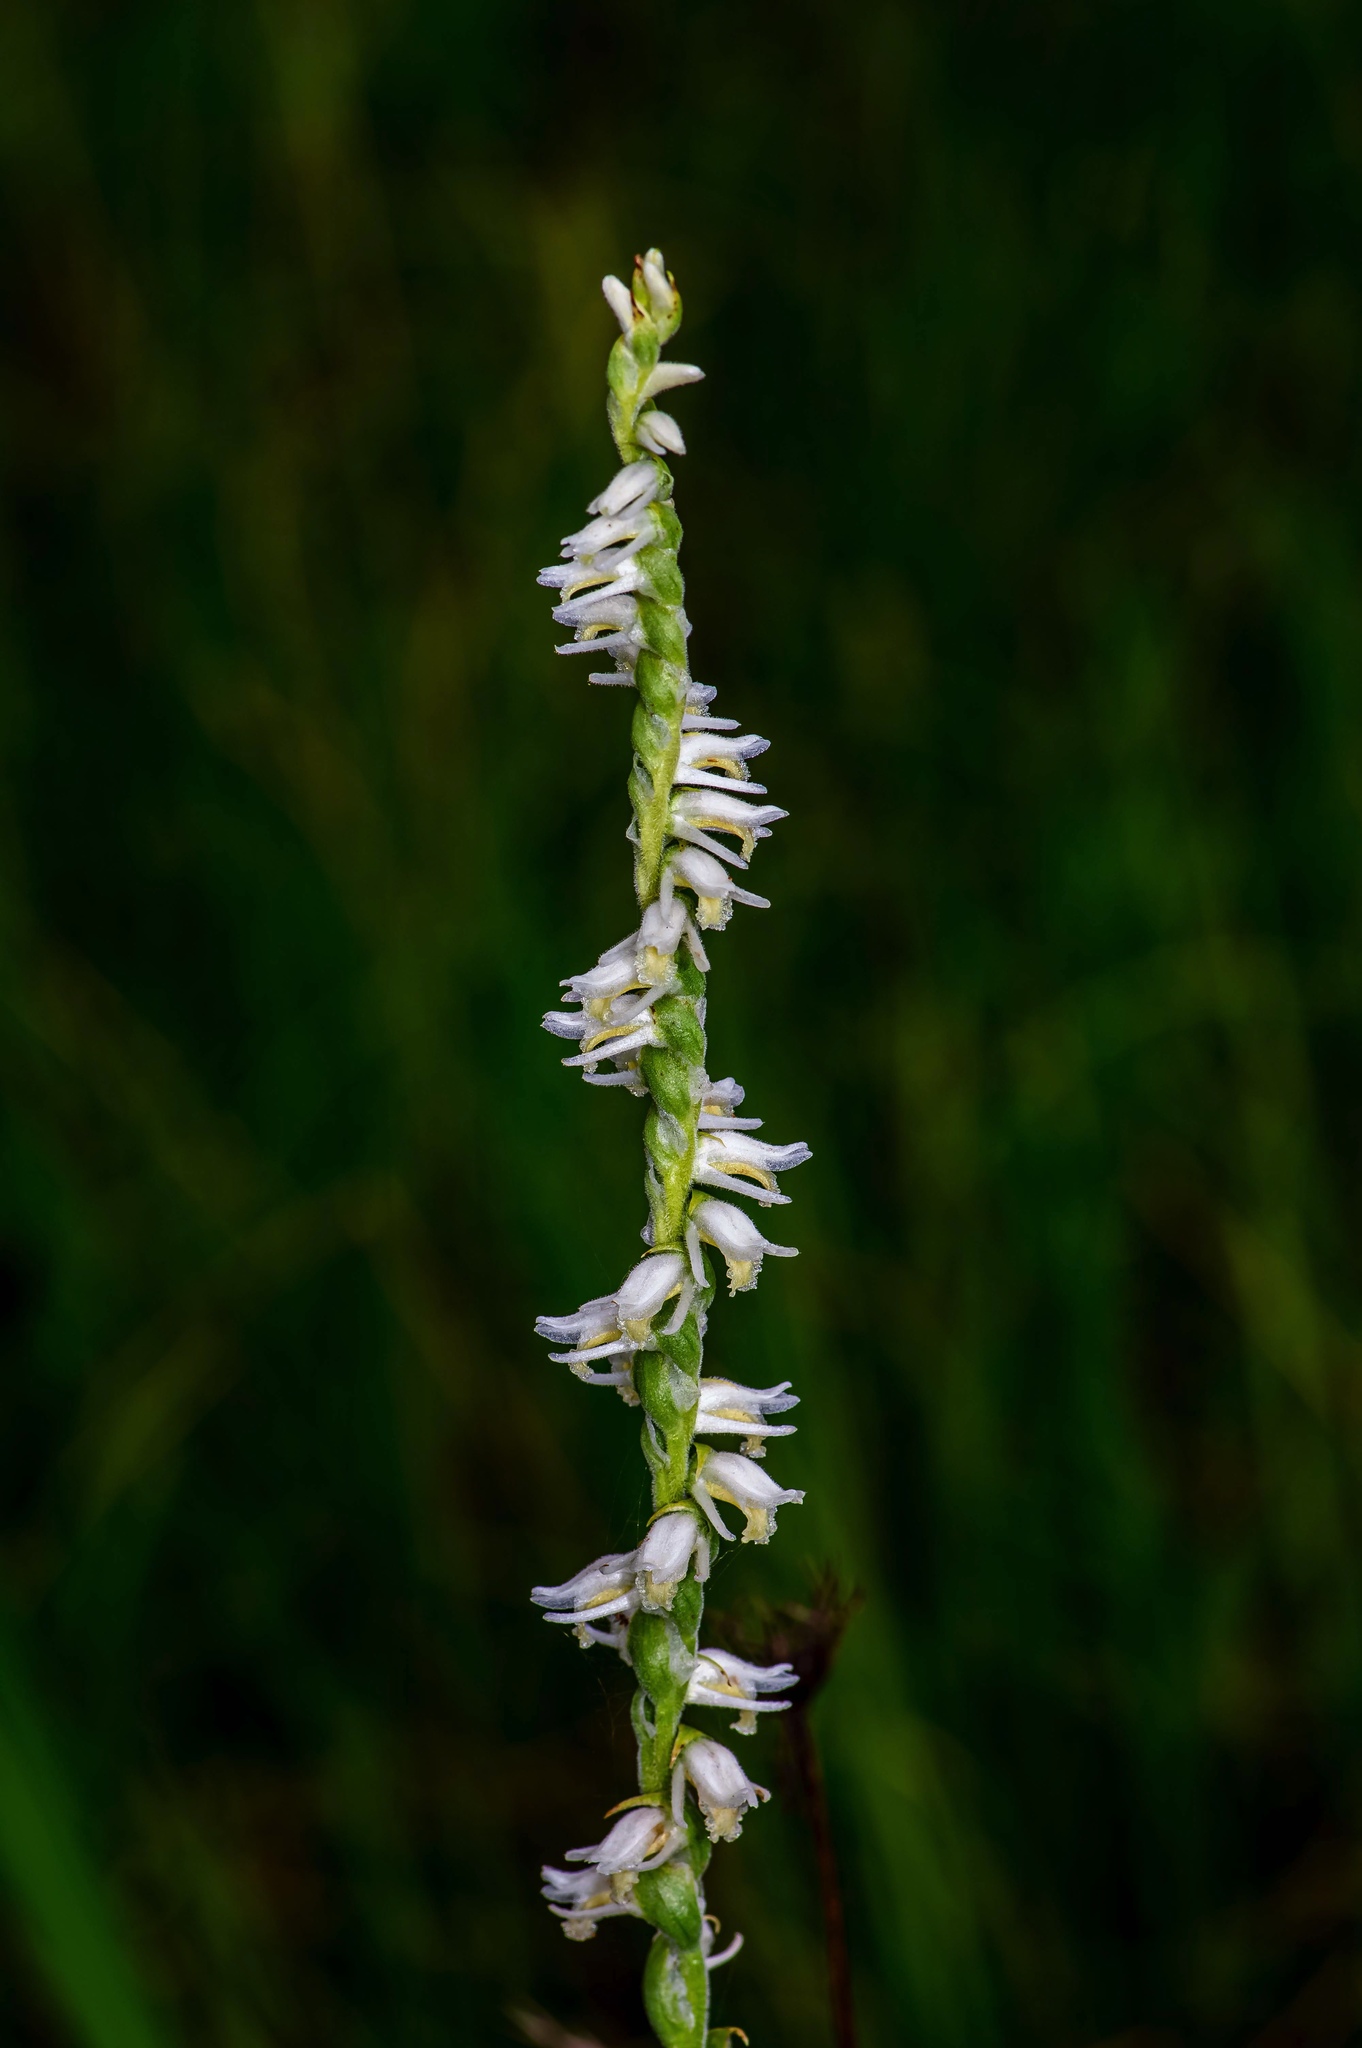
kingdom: Plantae
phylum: Tracheophyta
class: Liliopsida
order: Asparagales
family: Orchidaceae
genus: Spiranthes
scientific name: Spiranthes vernalis
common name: Spring ladies'-tresses
